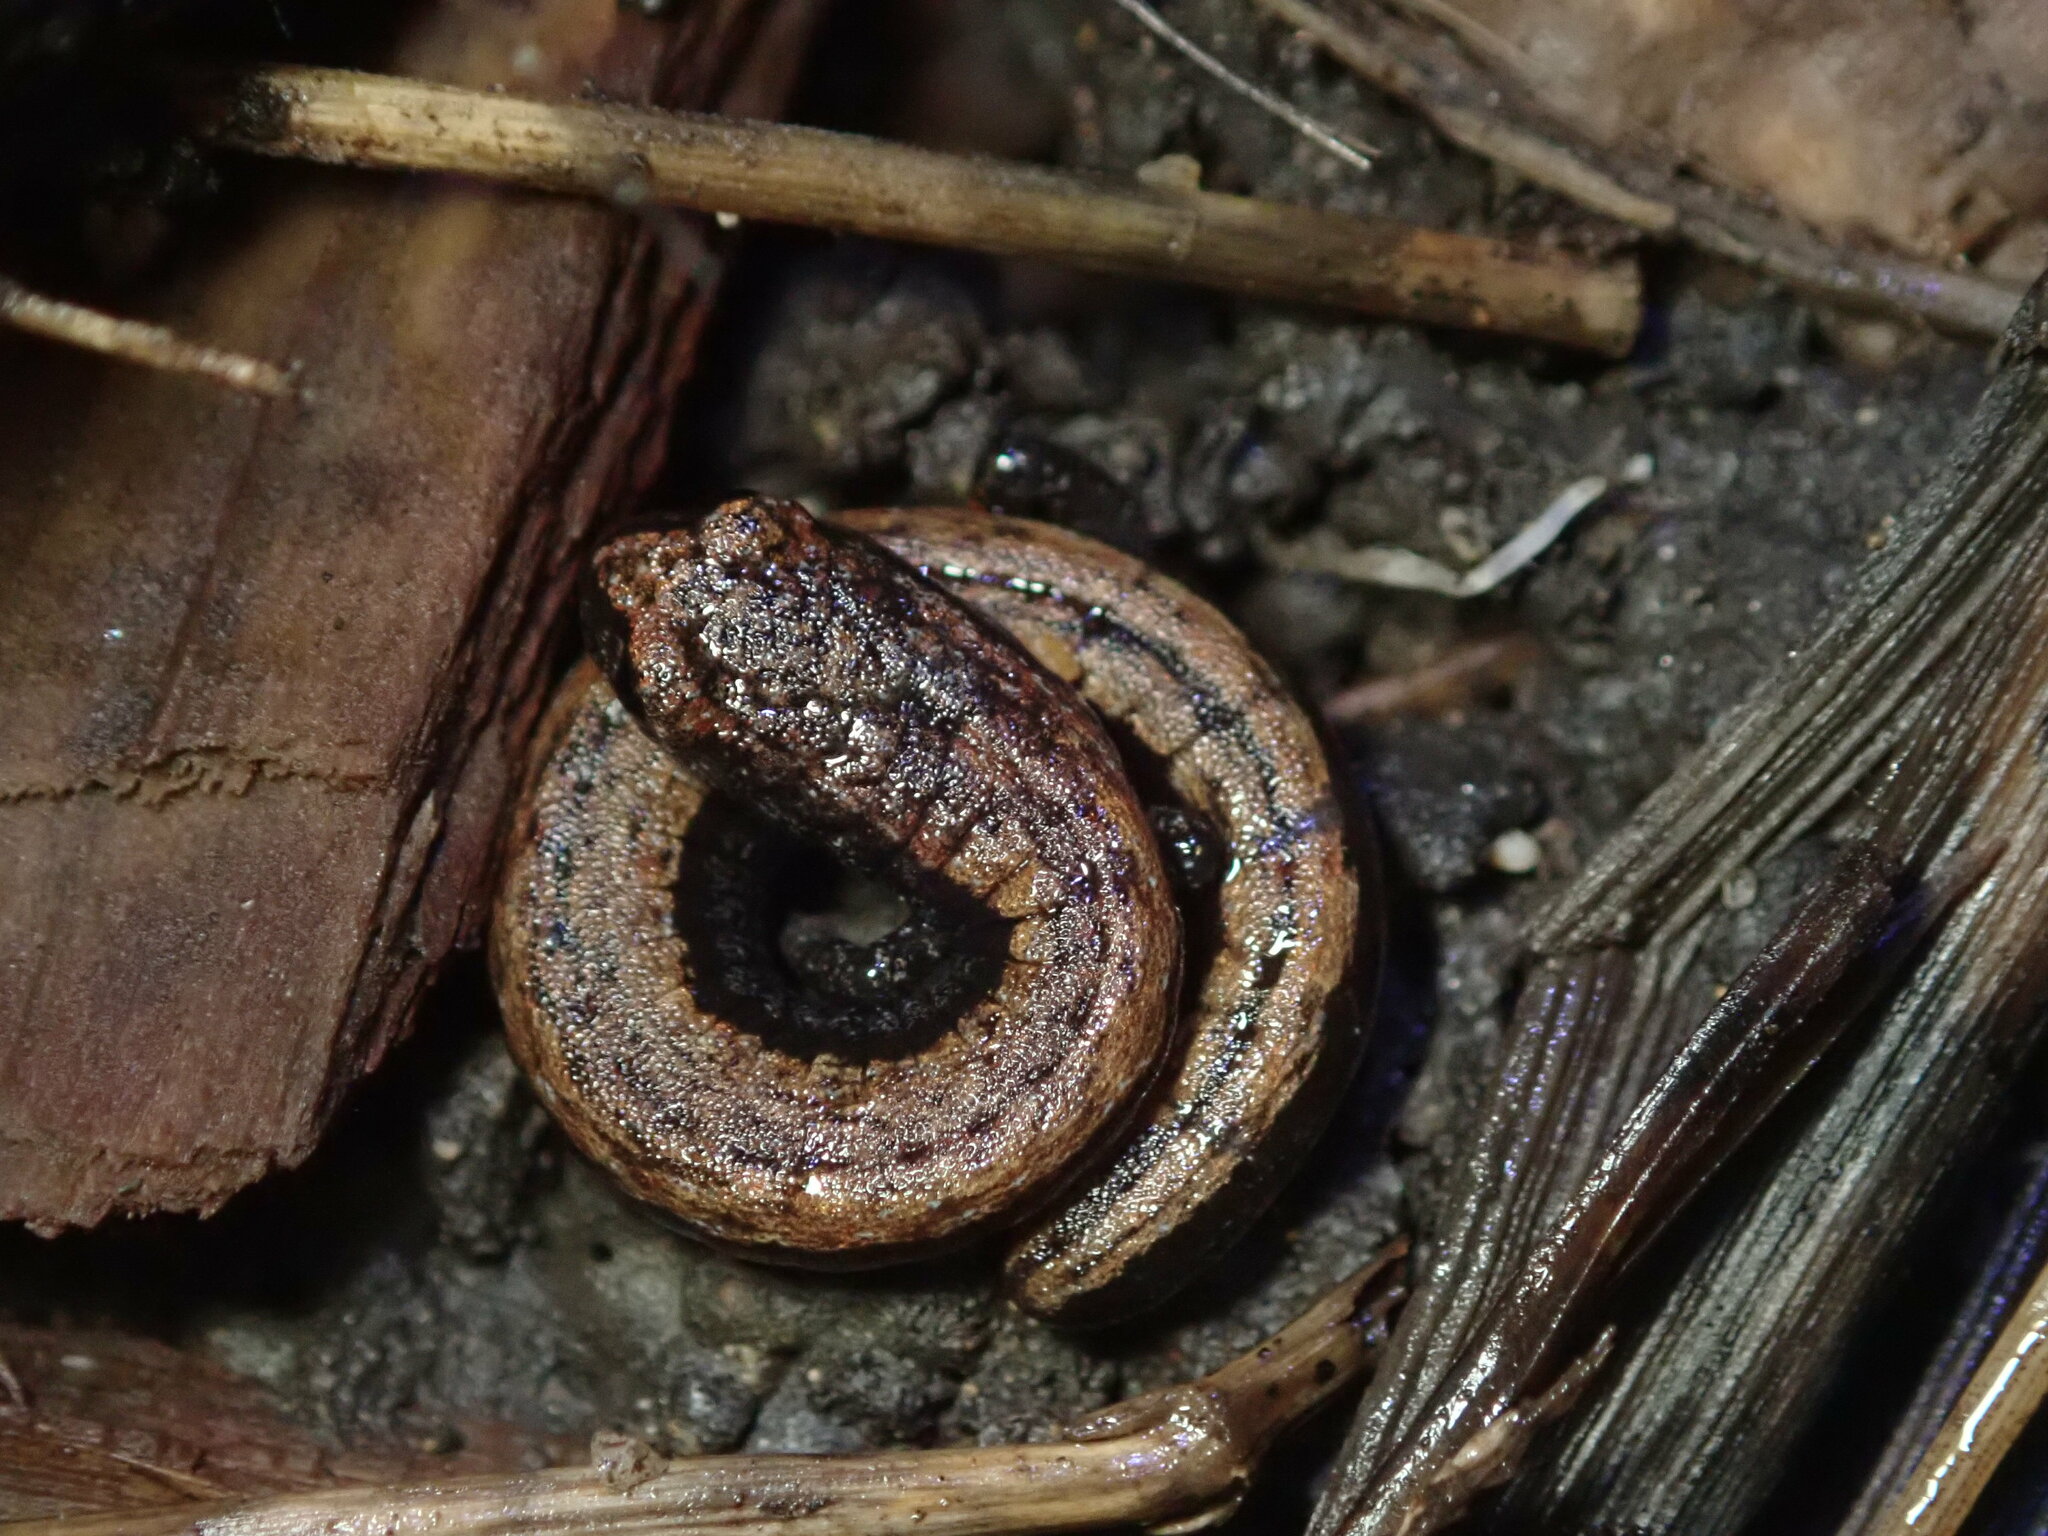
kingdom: Animalia
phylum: Chordata
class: Amphibia
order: Caudata
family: Plethodontidae
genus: Batrachoseps
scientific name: Batrachoseps attenuatus
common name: California slender salamander
